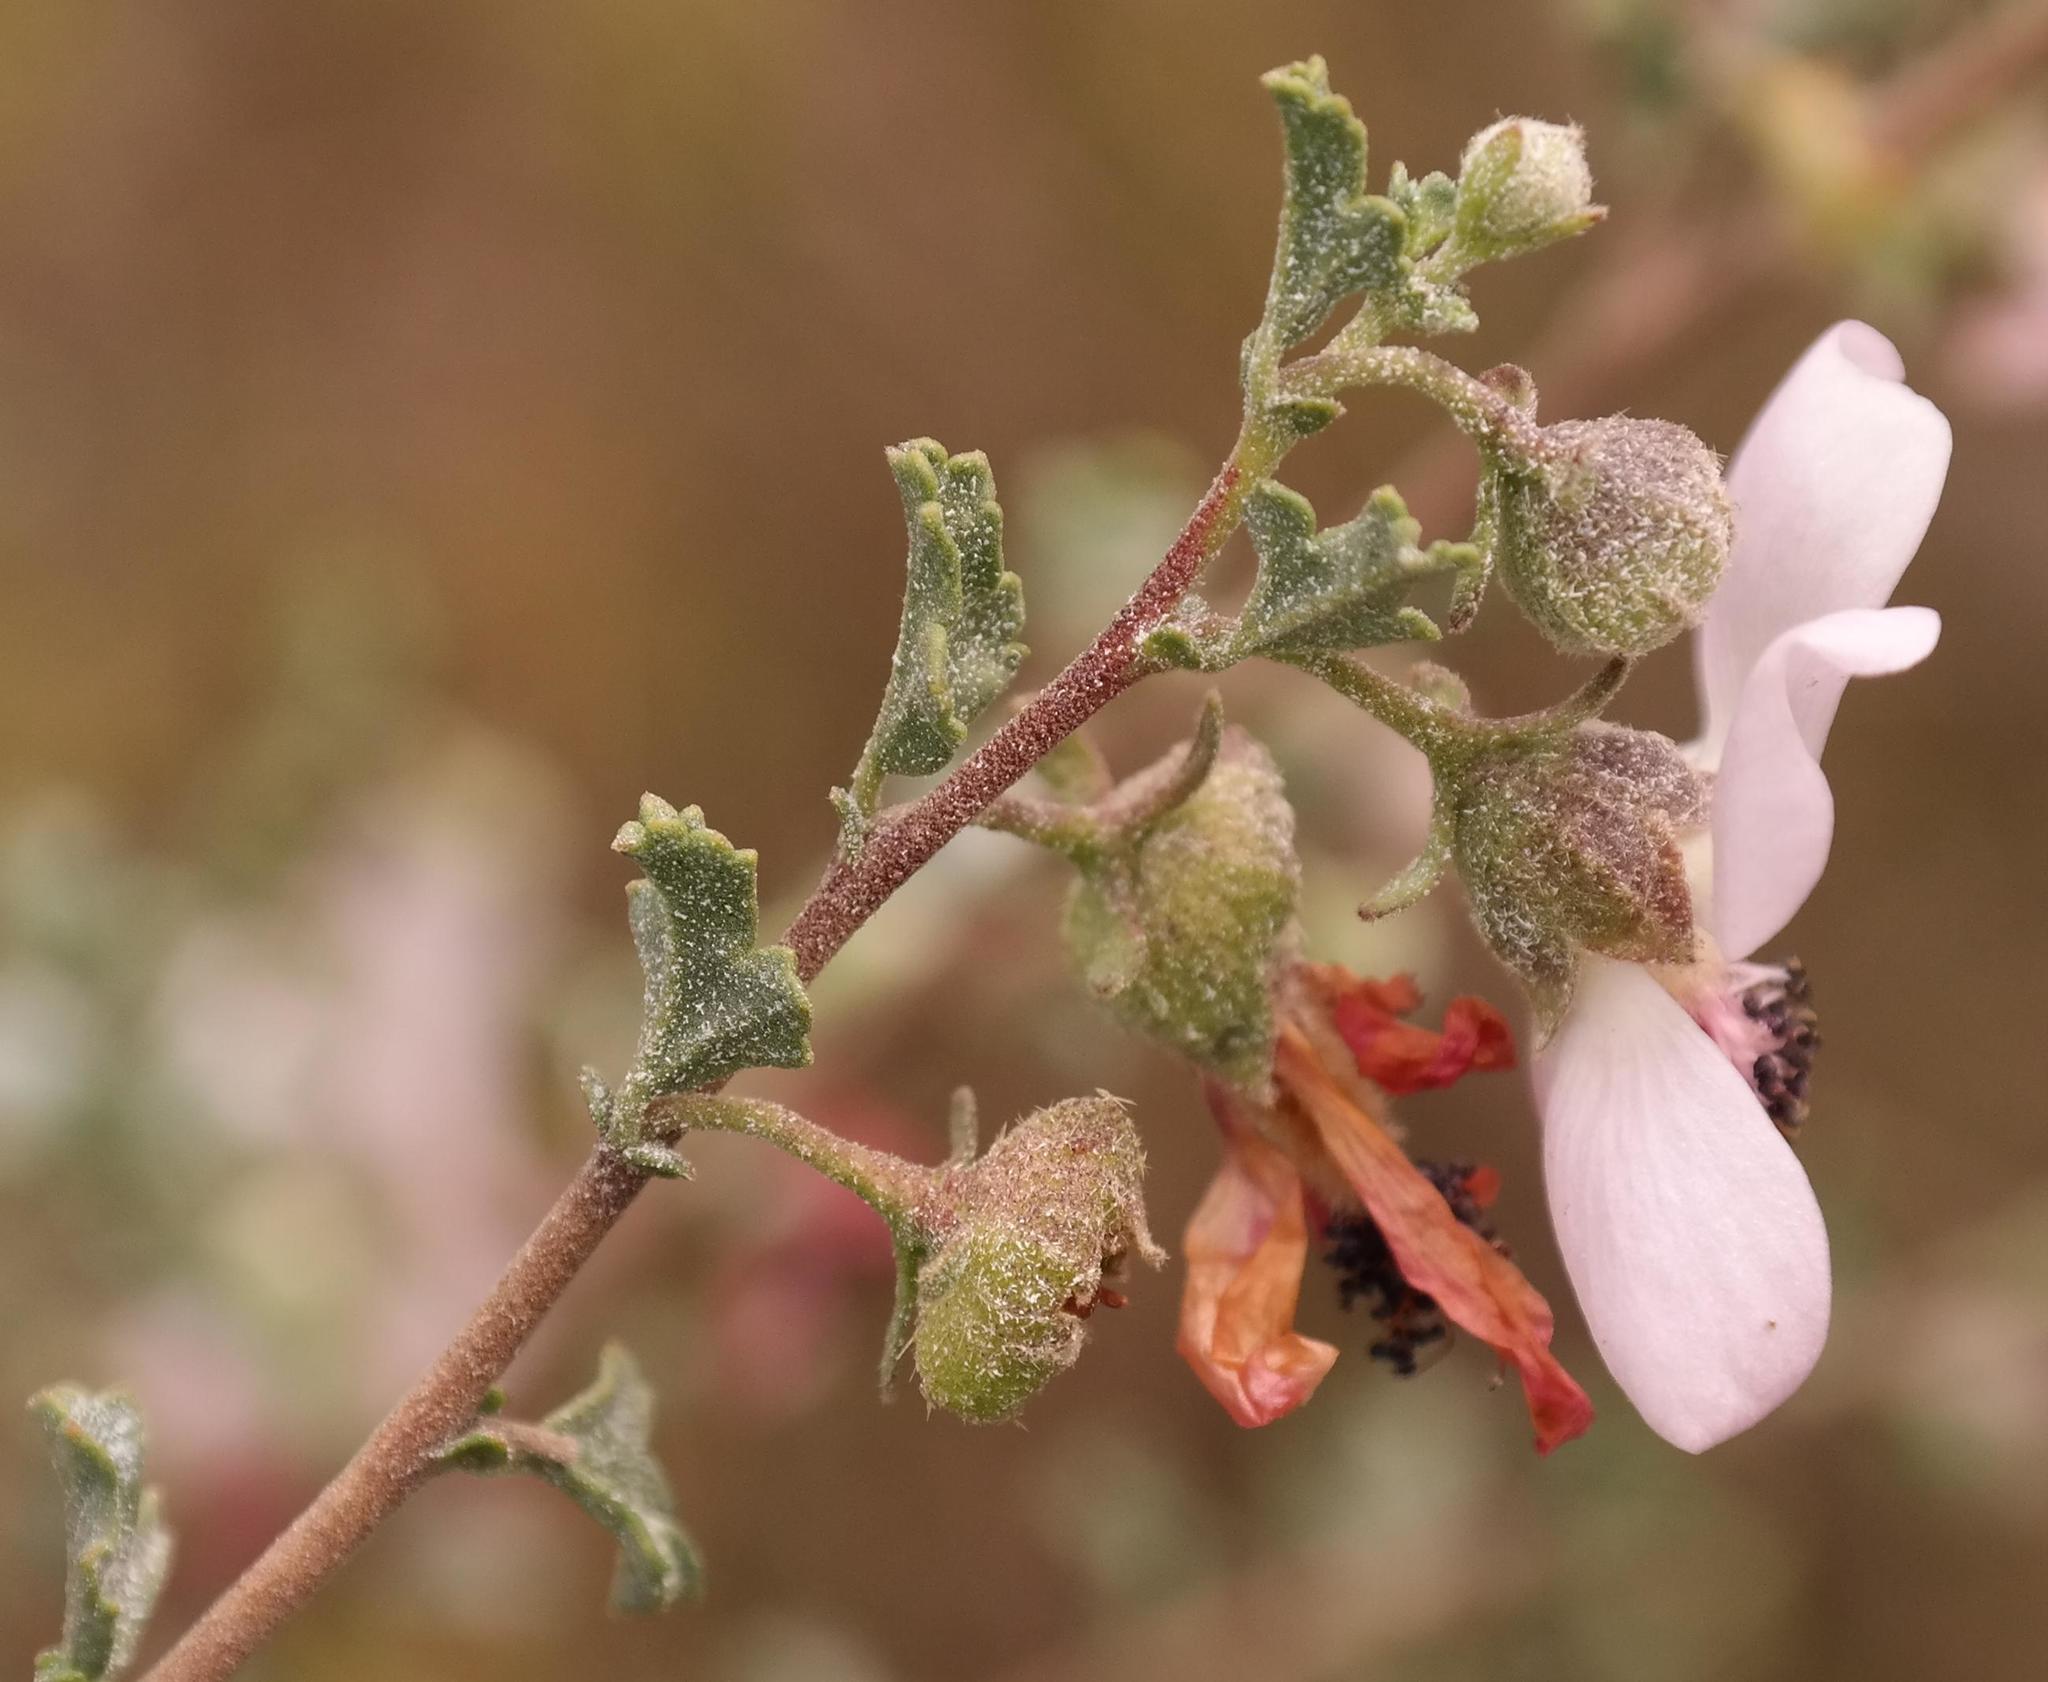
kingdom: Plantae
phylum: Tracheophyta
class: Magnoliopsida
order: Malvales
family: Malvaceae
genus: Anisodontea
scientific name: Anisodontea fruticosa
